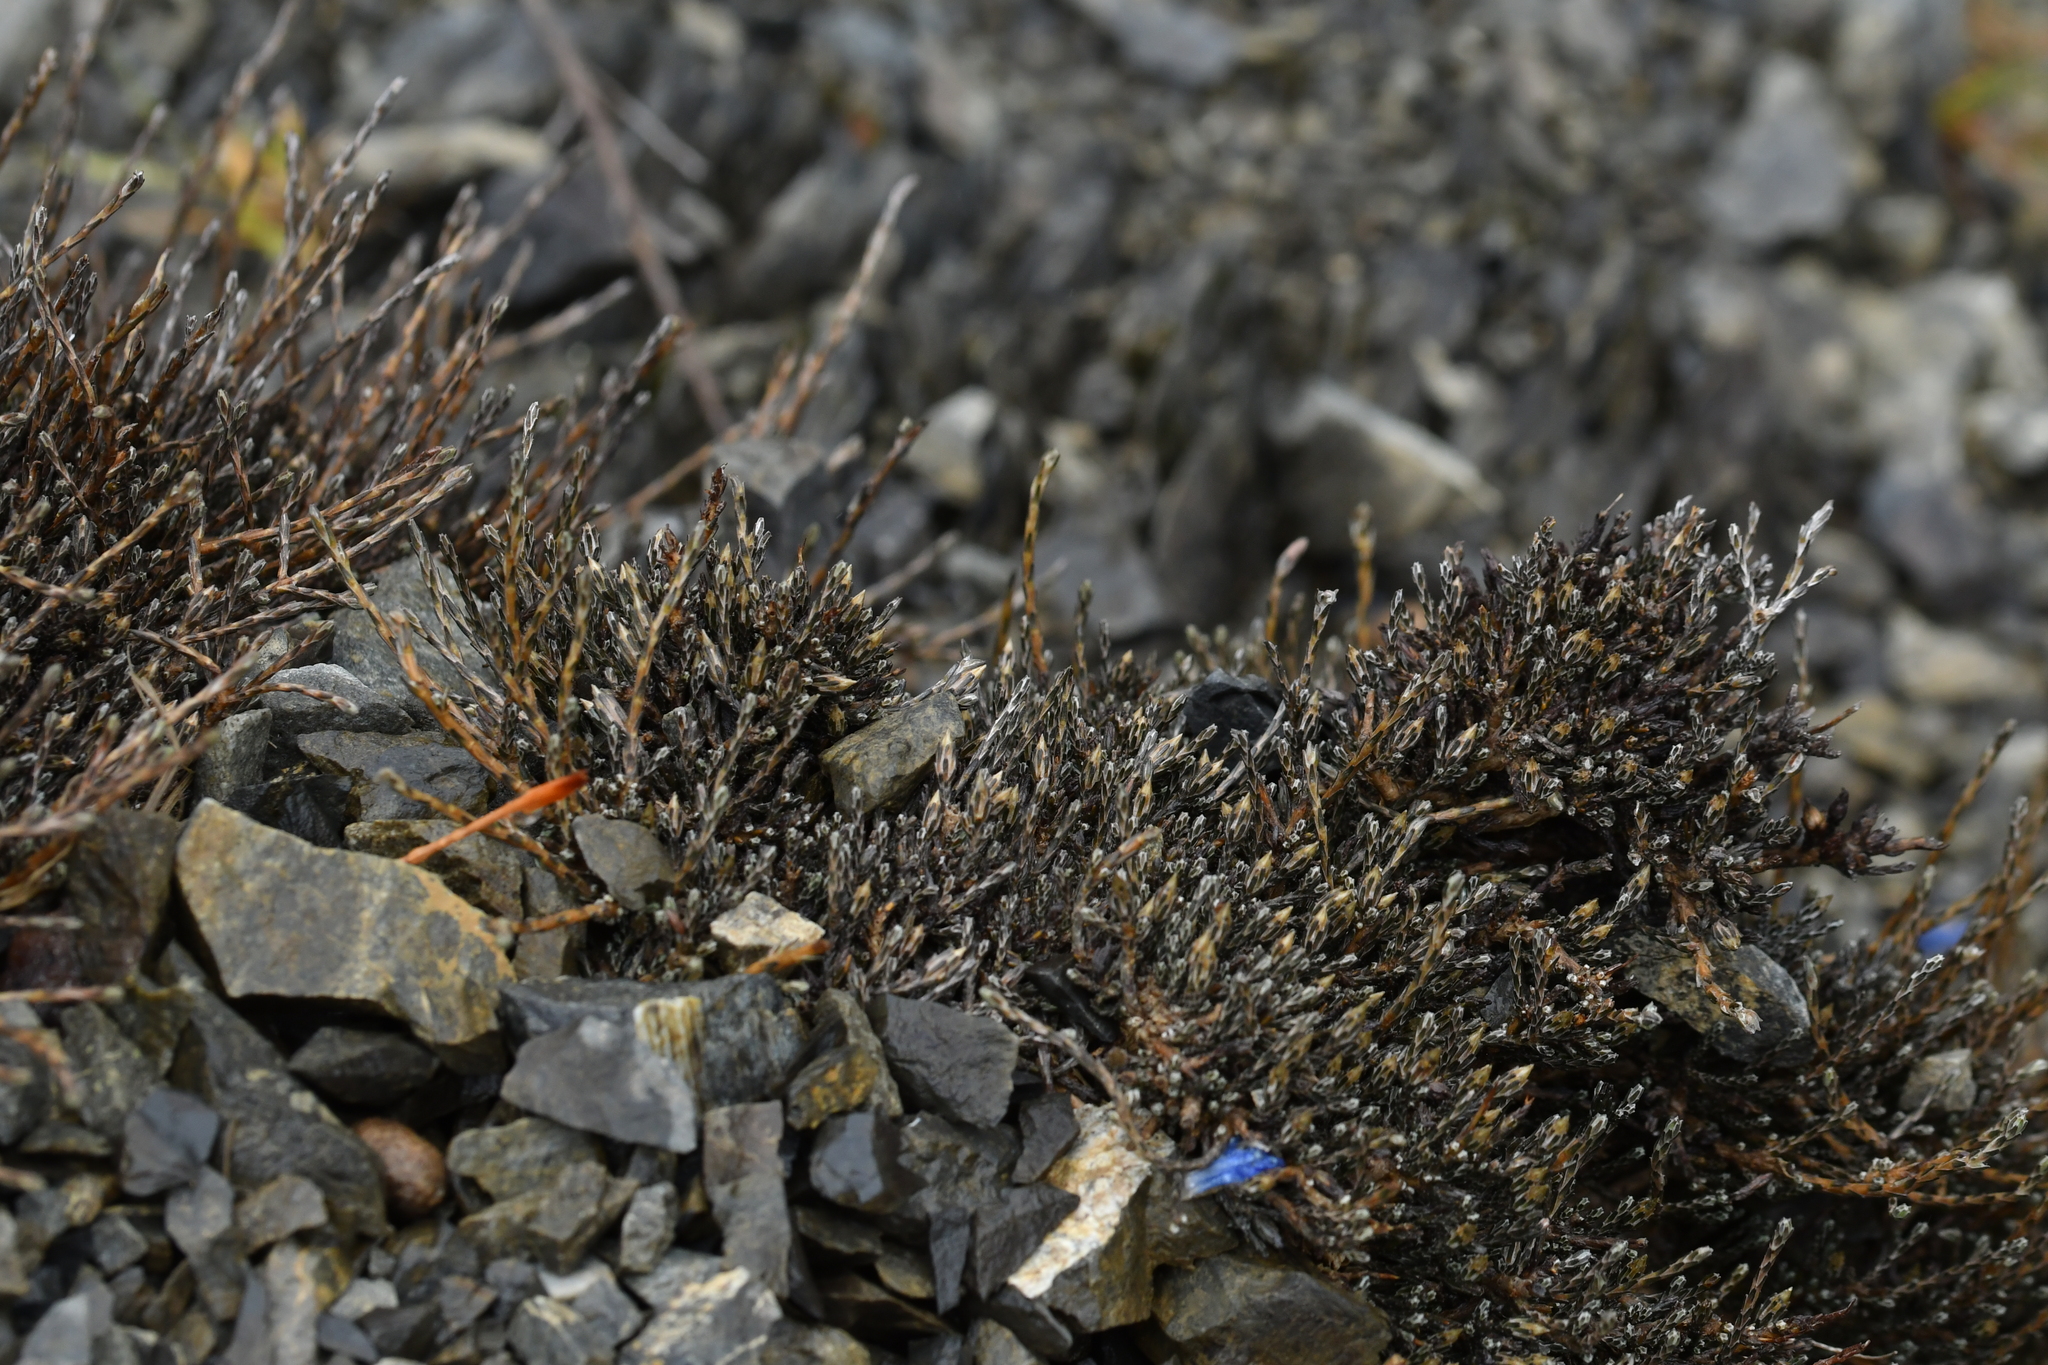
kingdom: Plantae
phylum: Tracheophyta
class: Magnoliopsida
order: Asterales
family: Asteraceae
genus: Ozothamnus
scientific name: Ozothamnus depressus
